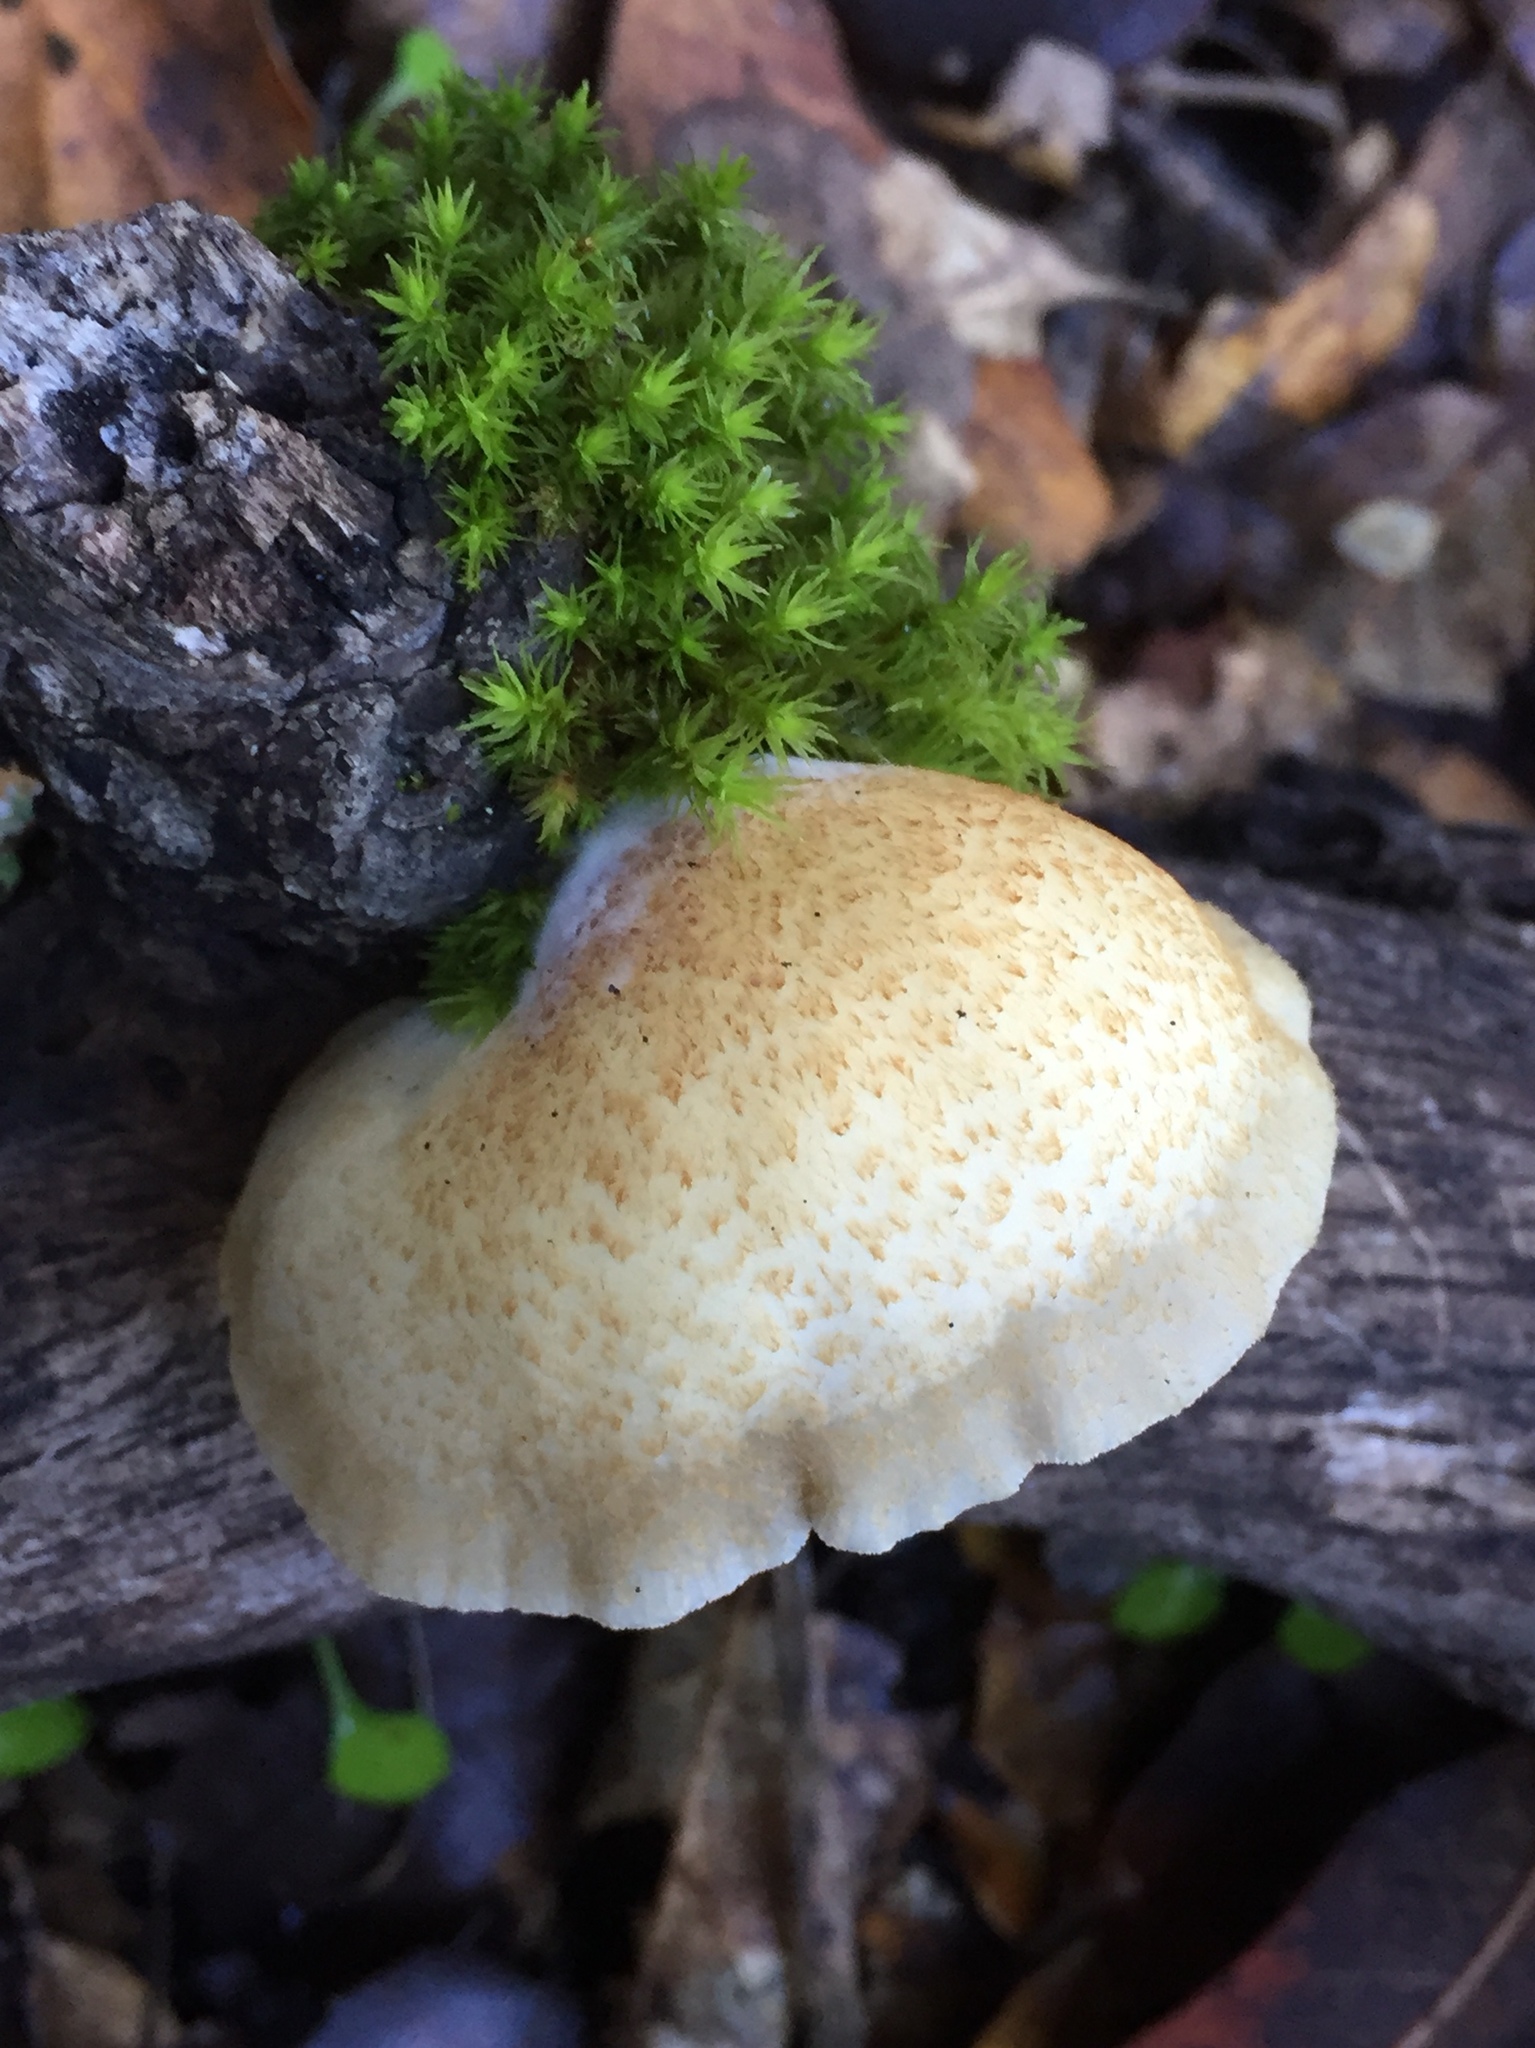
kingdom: Fungi
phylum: Basidiomycota
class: Agaricomycetes
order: Agaricales
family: Crepidotaceae
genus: Crepidotus
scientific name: Crepidotus mollis
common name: Peeling oysterling
